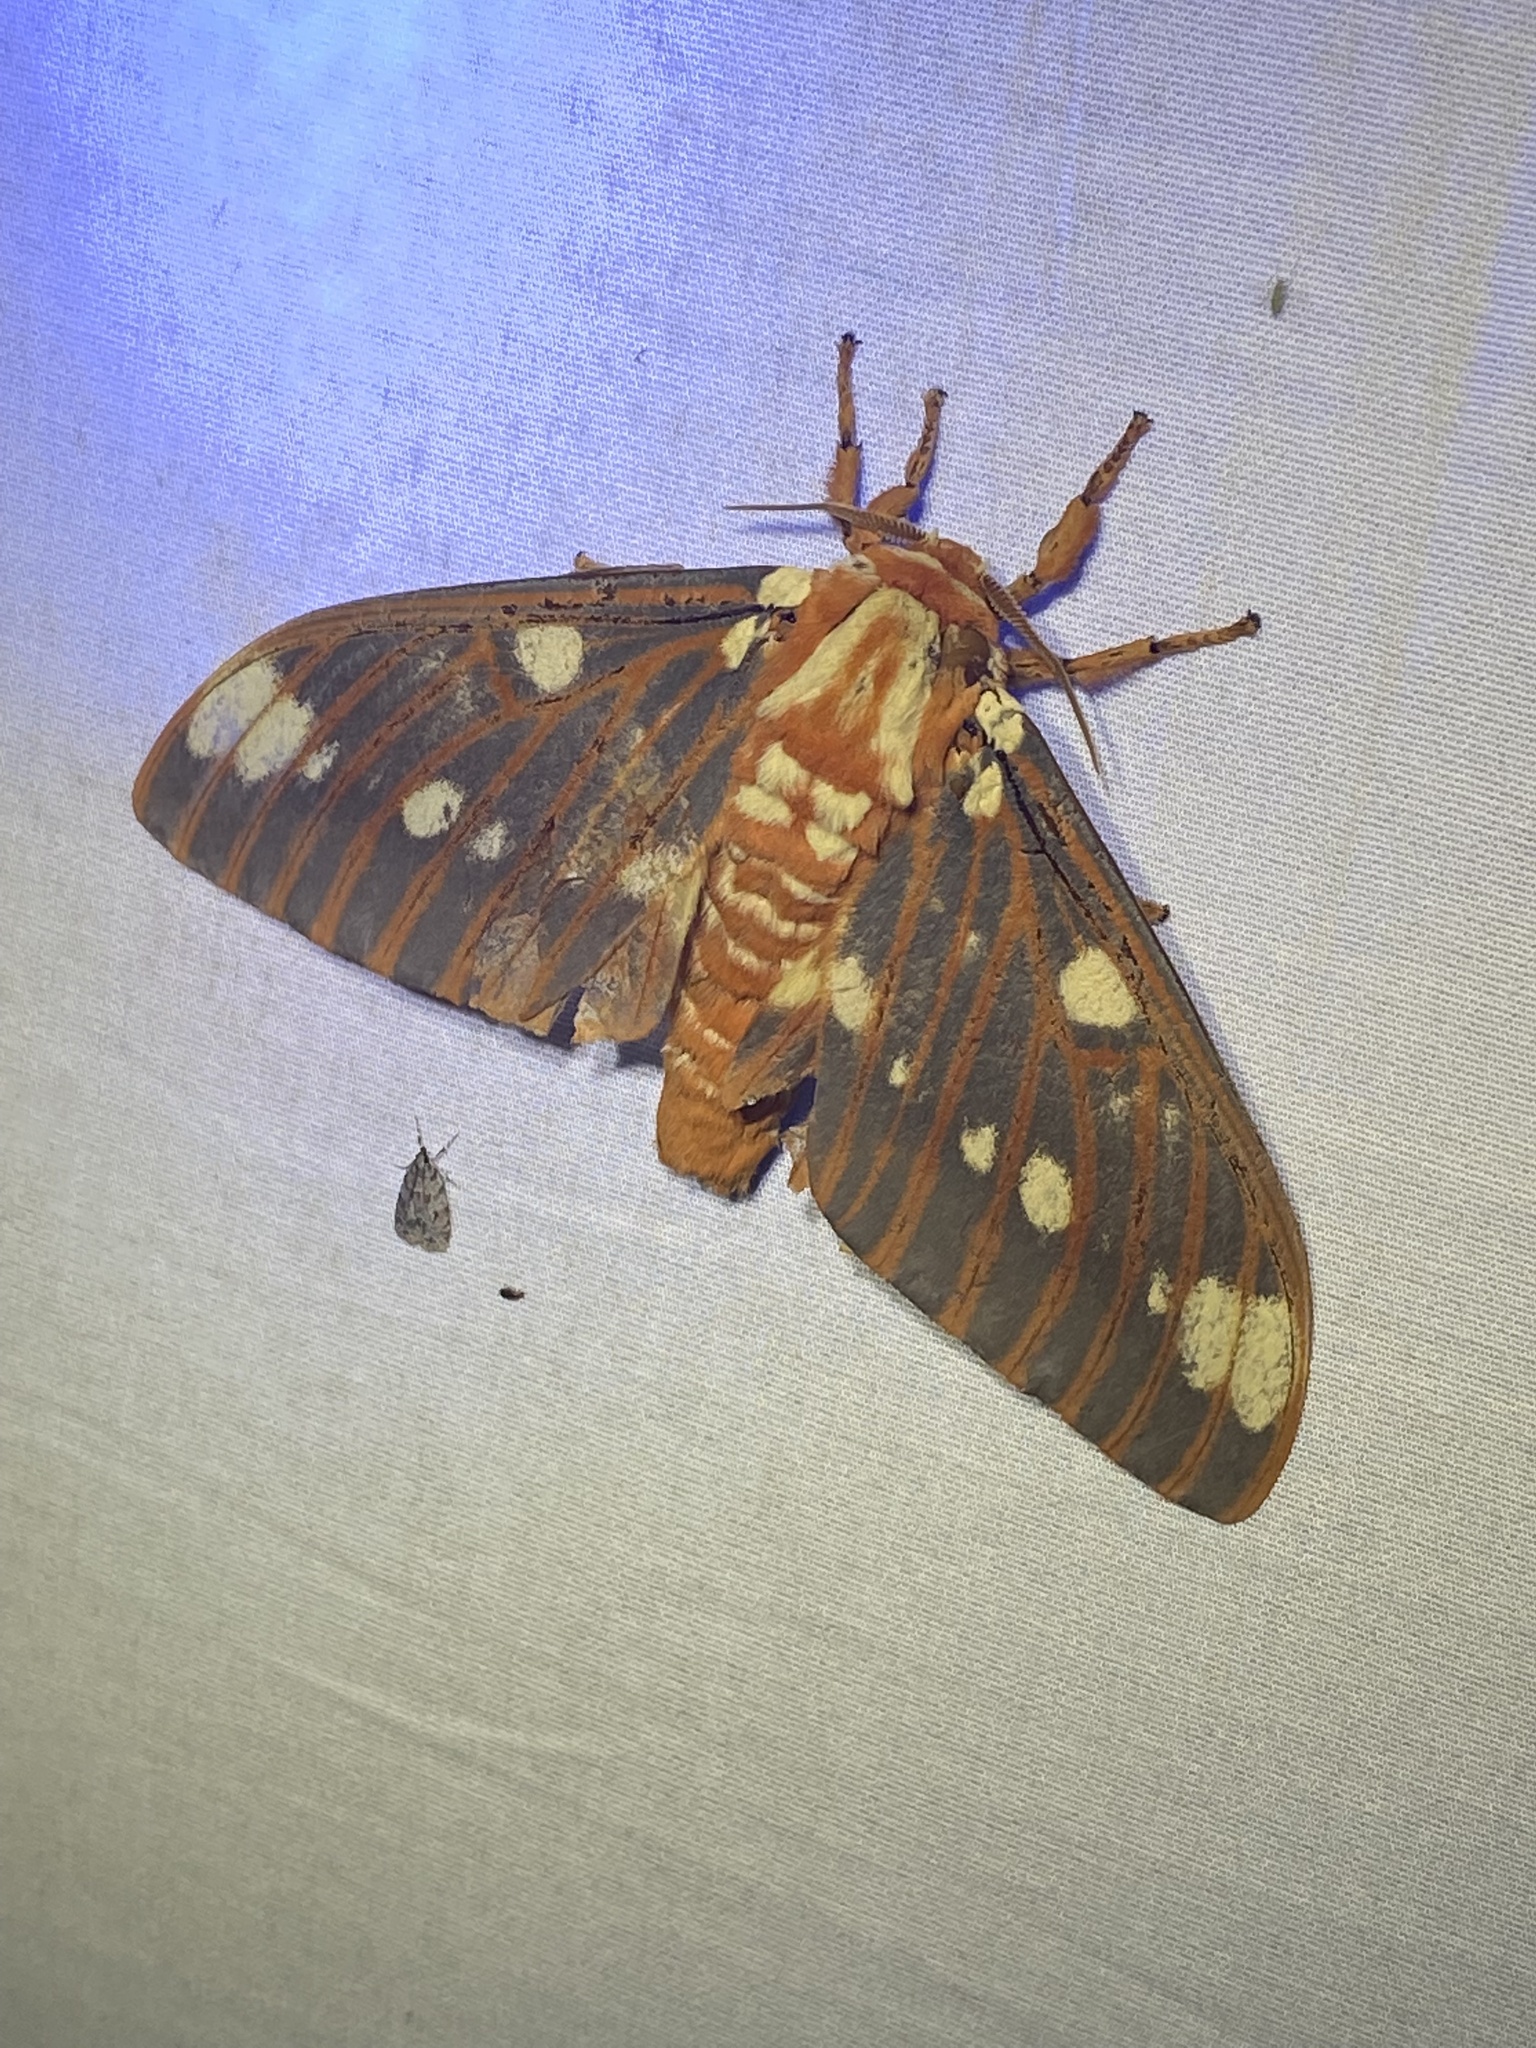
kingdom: Animalia
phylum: Arthropoda
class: Insecta
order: Lepidoptera
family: Saturniidae
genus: Citheronia
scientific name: Citheronia regalis
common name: Hickory horned devil
